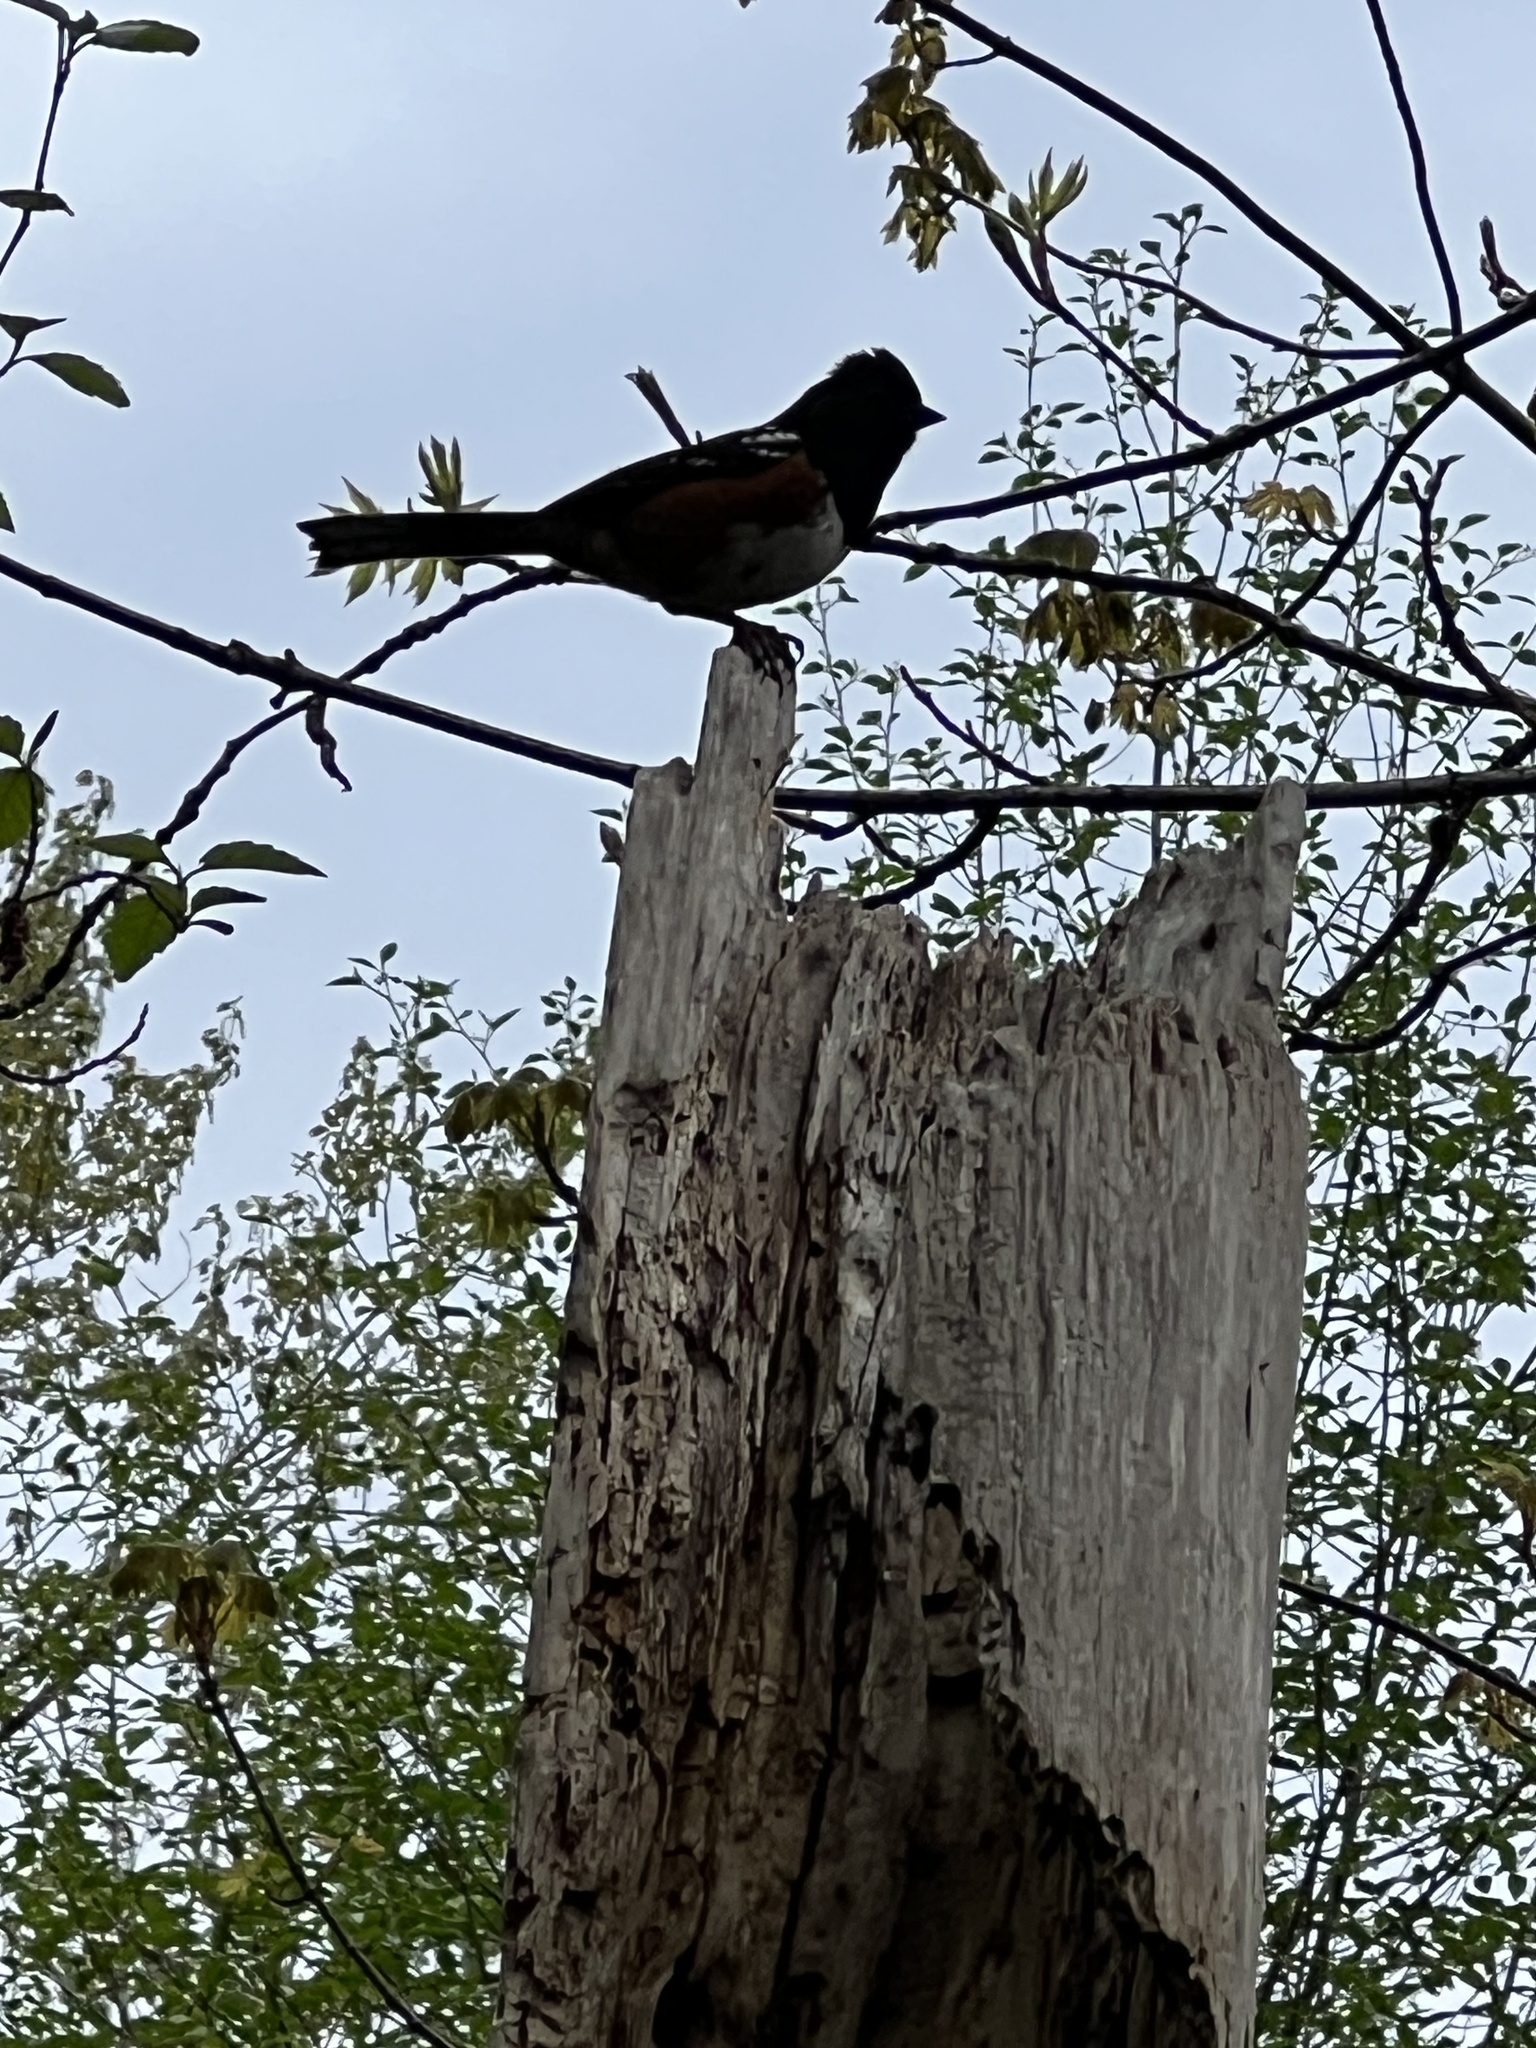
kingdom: Animalia
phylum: Chordata
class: Aves
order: Passeriformes
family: Passerellidae
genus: Pipilo
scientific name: Pipilo maculatus
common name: Spotted towhee
